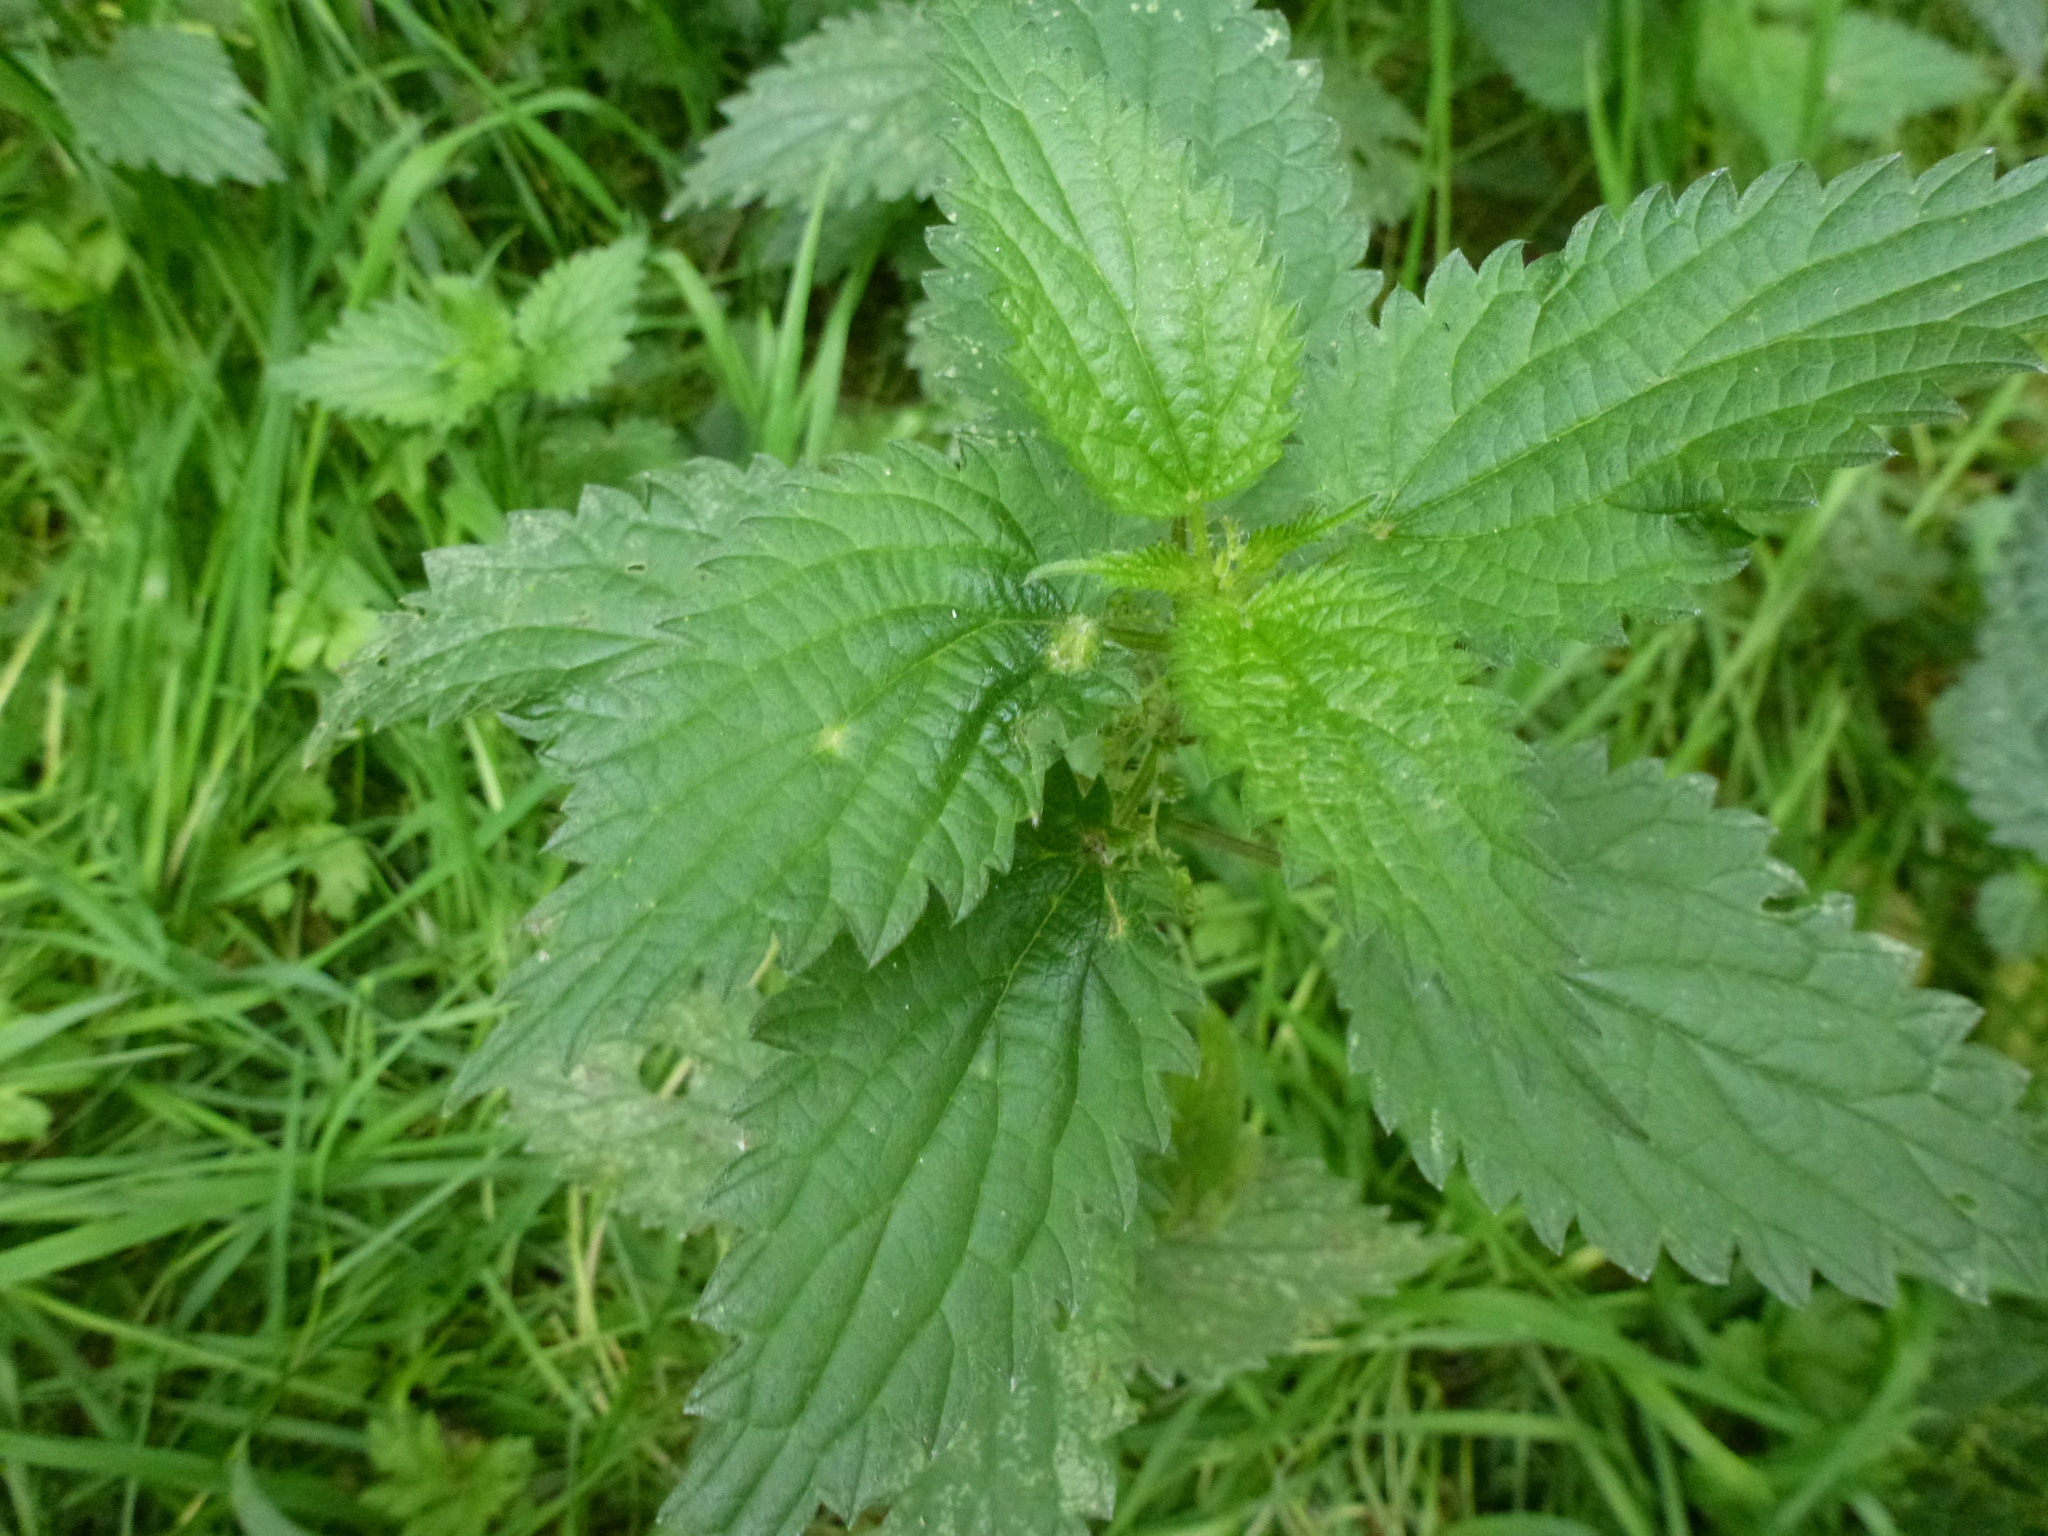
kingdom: Animalia
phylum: Arthropoda
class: Insecta
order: Diptera
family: Cecidomyiidae
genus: Dasineura
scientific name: Dasineura urticae
